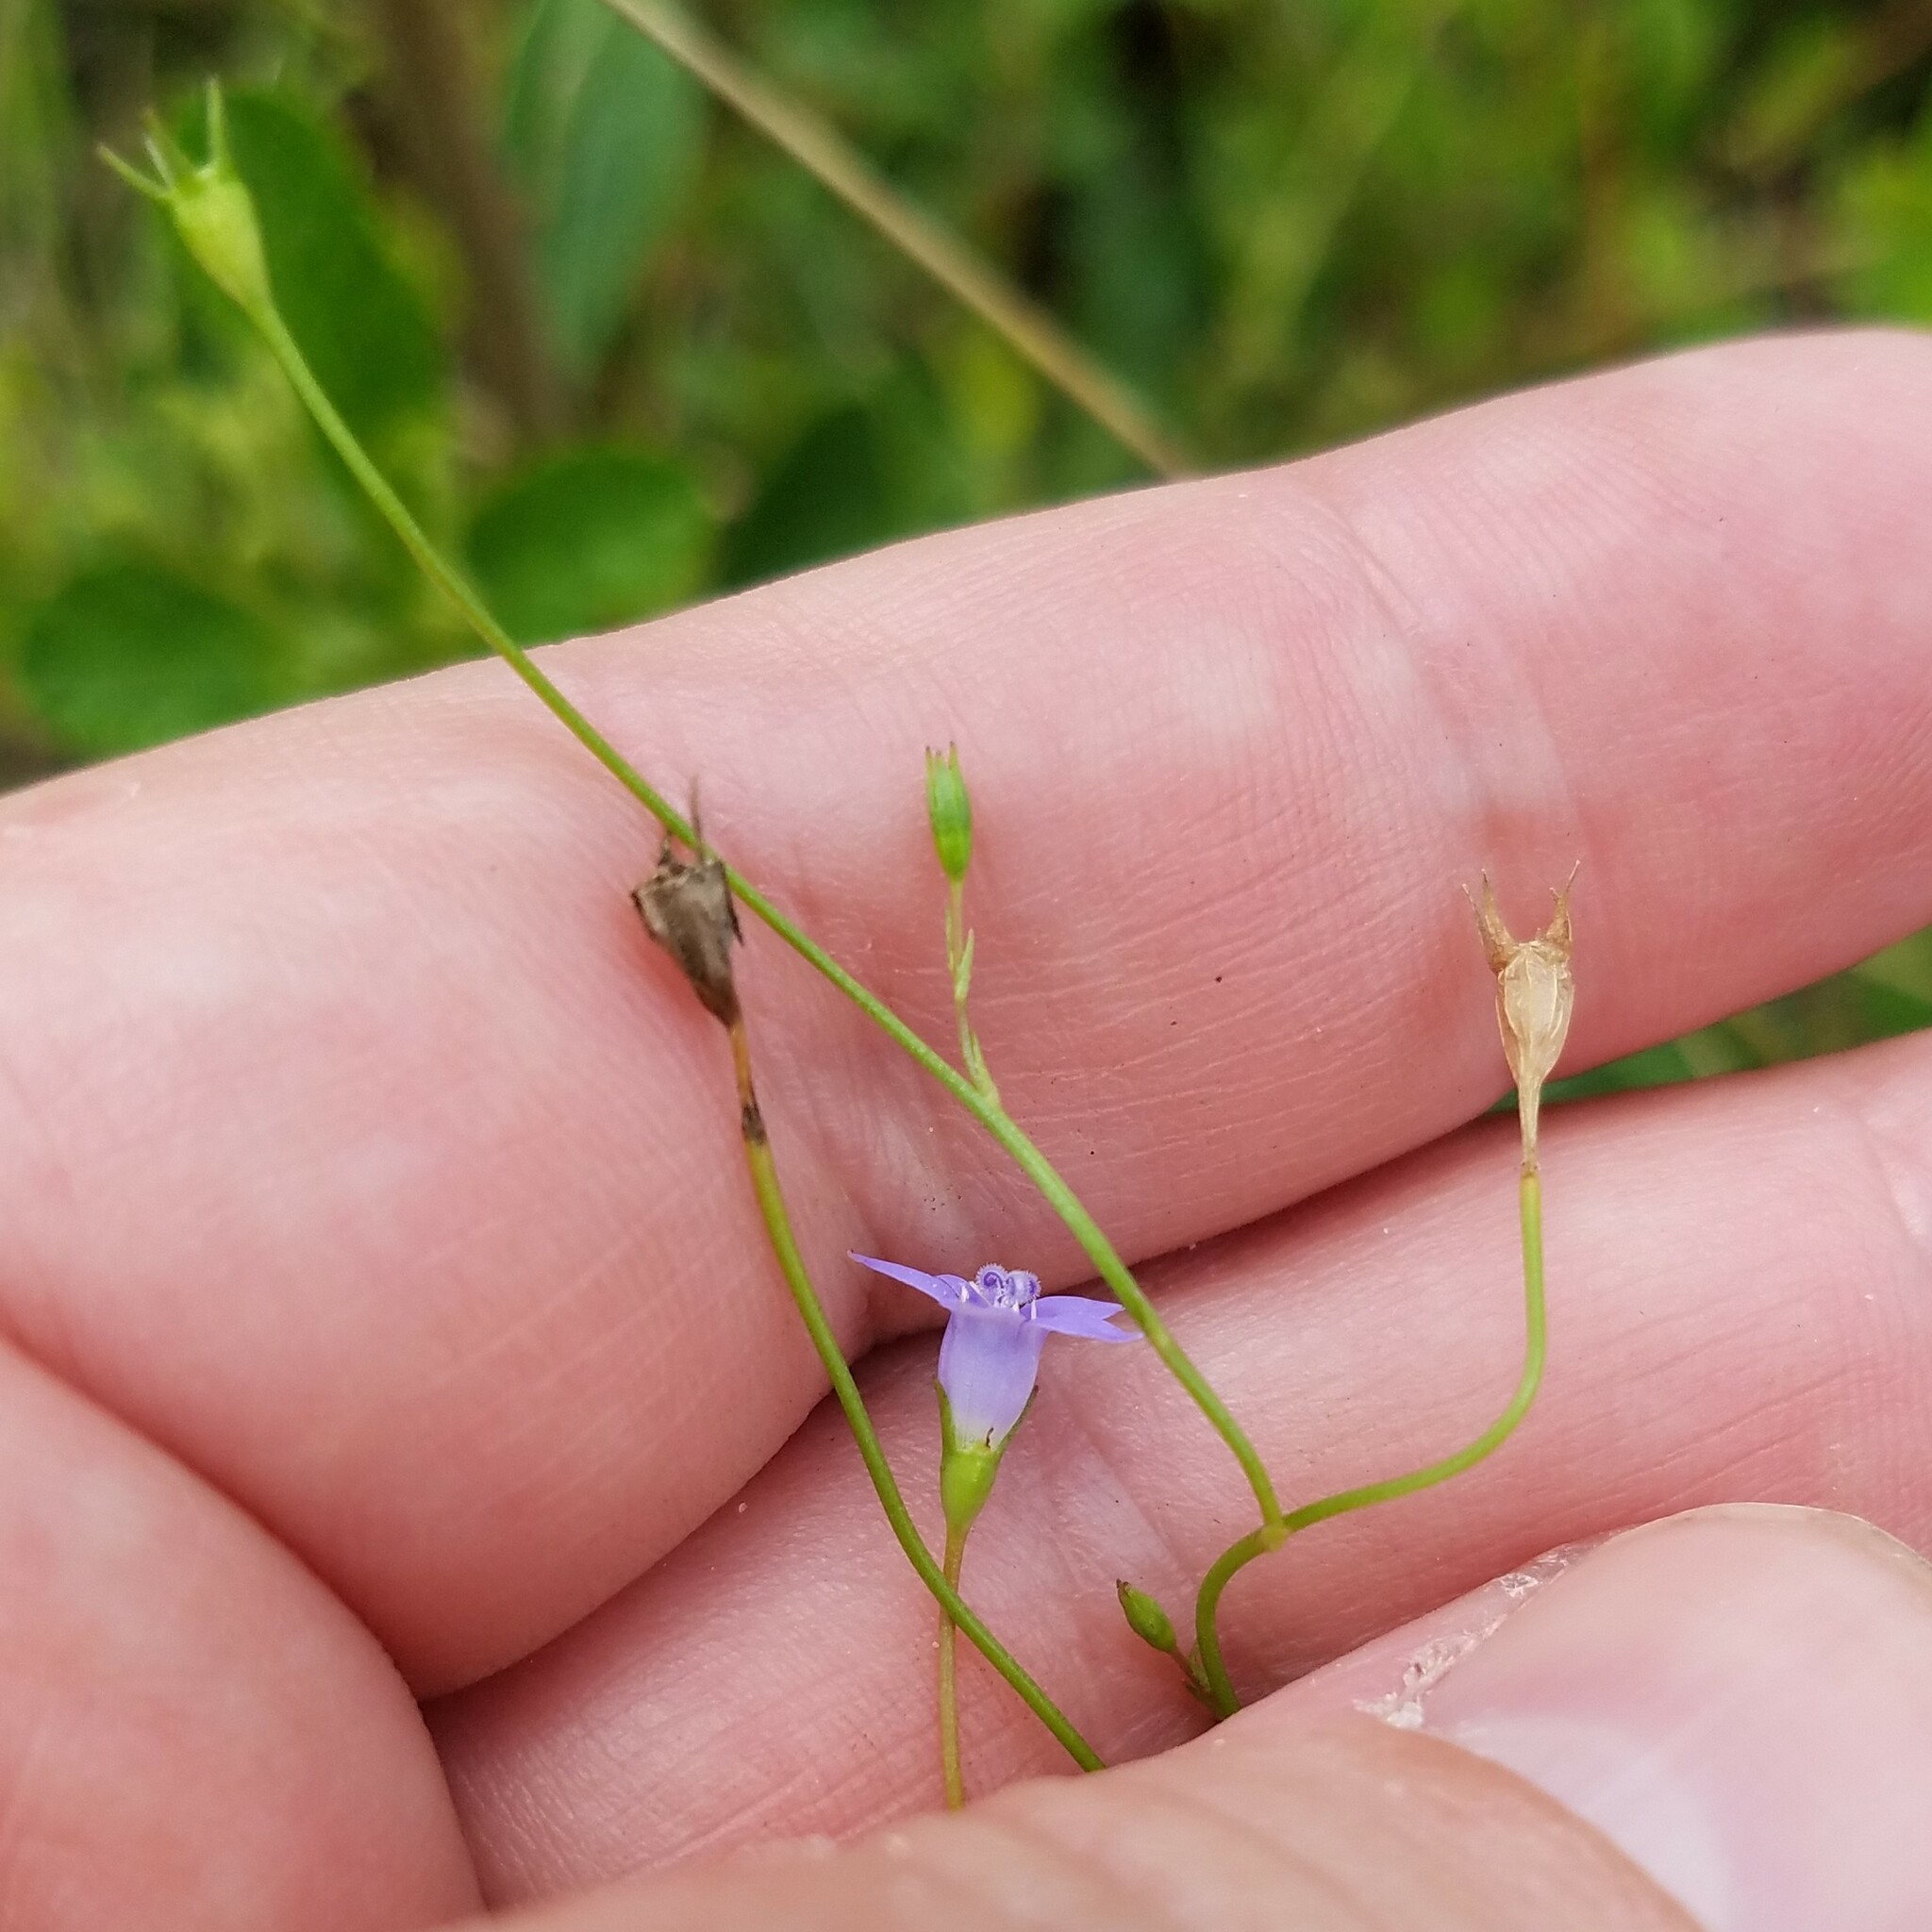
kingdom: Plantae
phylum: Tracheophyta
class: Magnoliopsida
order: Asterales
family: Campanulaceae
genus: Wahlenbergia
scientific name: Wahlenbergia marginata
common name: Southern rockbell
